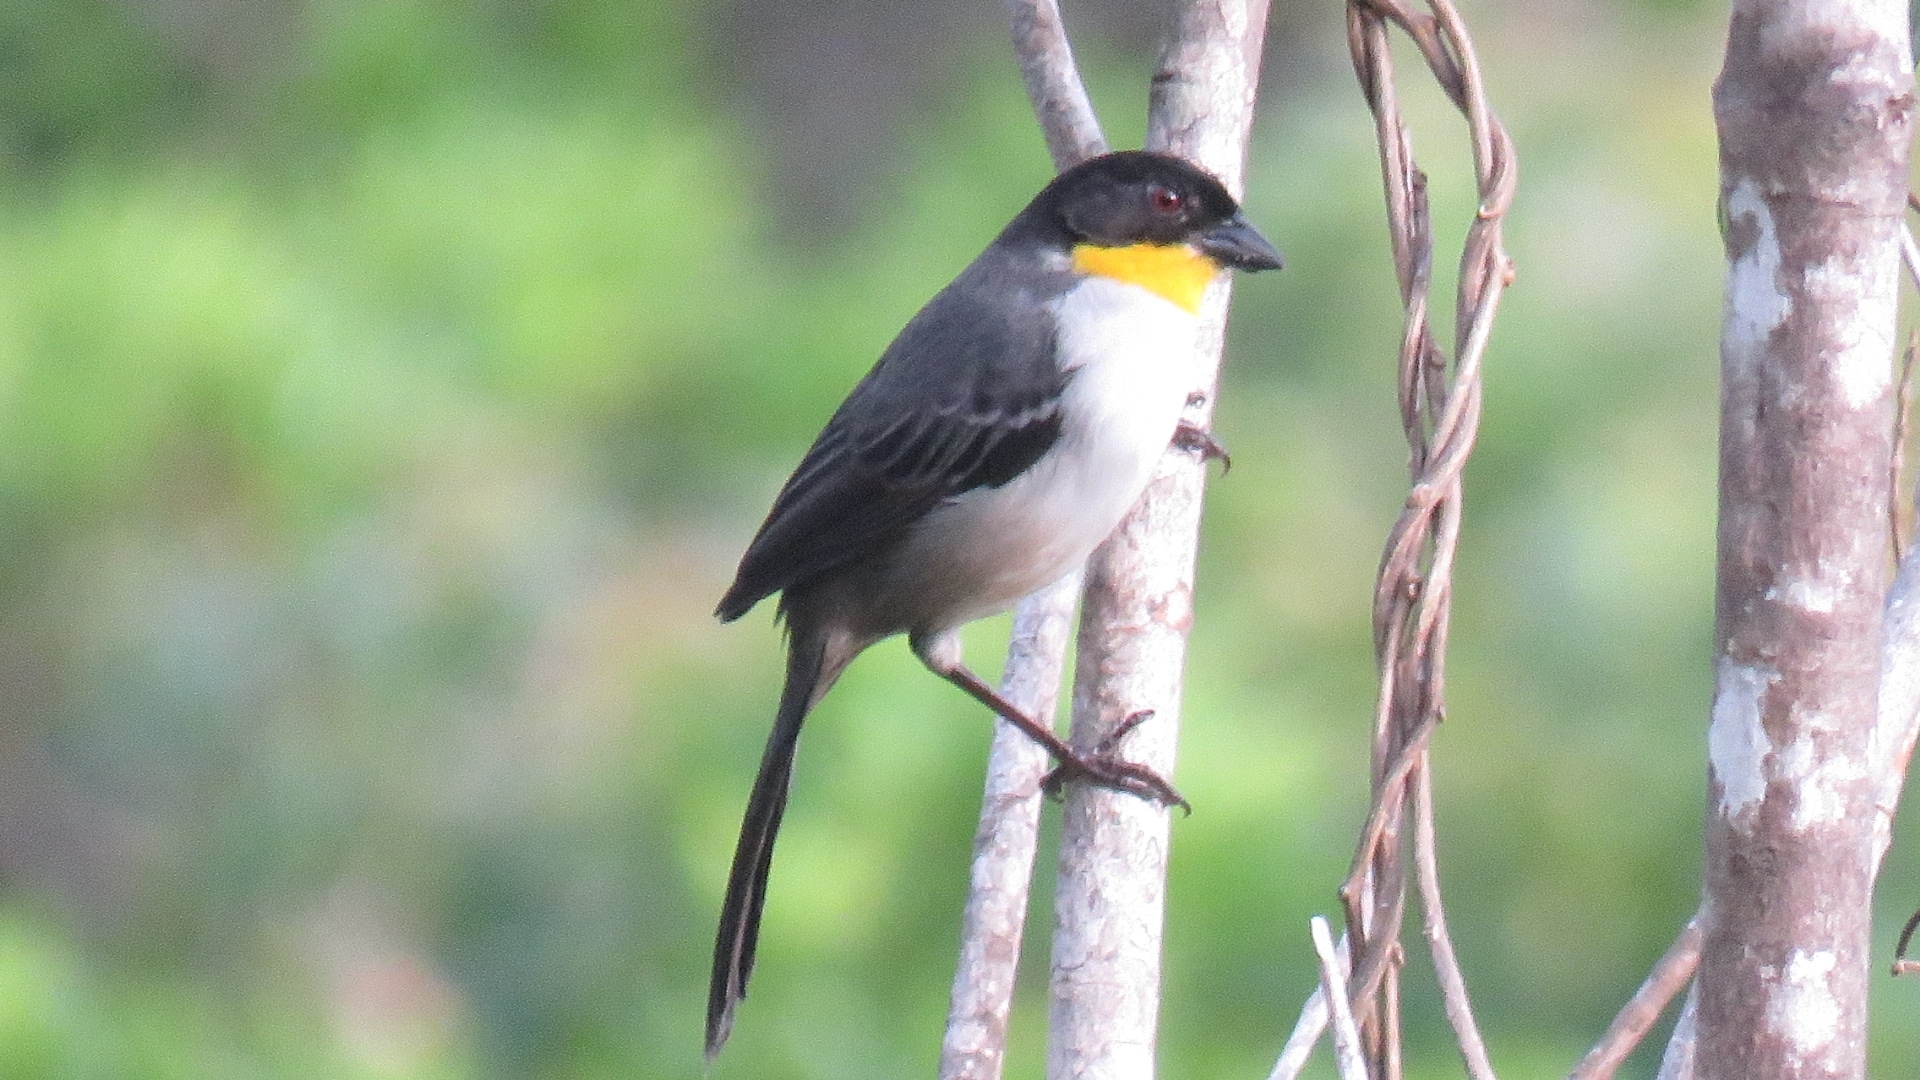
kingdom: Animalia
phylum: Chordata
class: Aves
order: Passeriformes
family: Passerellidae
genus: Atlapetes
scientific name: Atlapetes albinucha
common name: White-naped brush-finch
